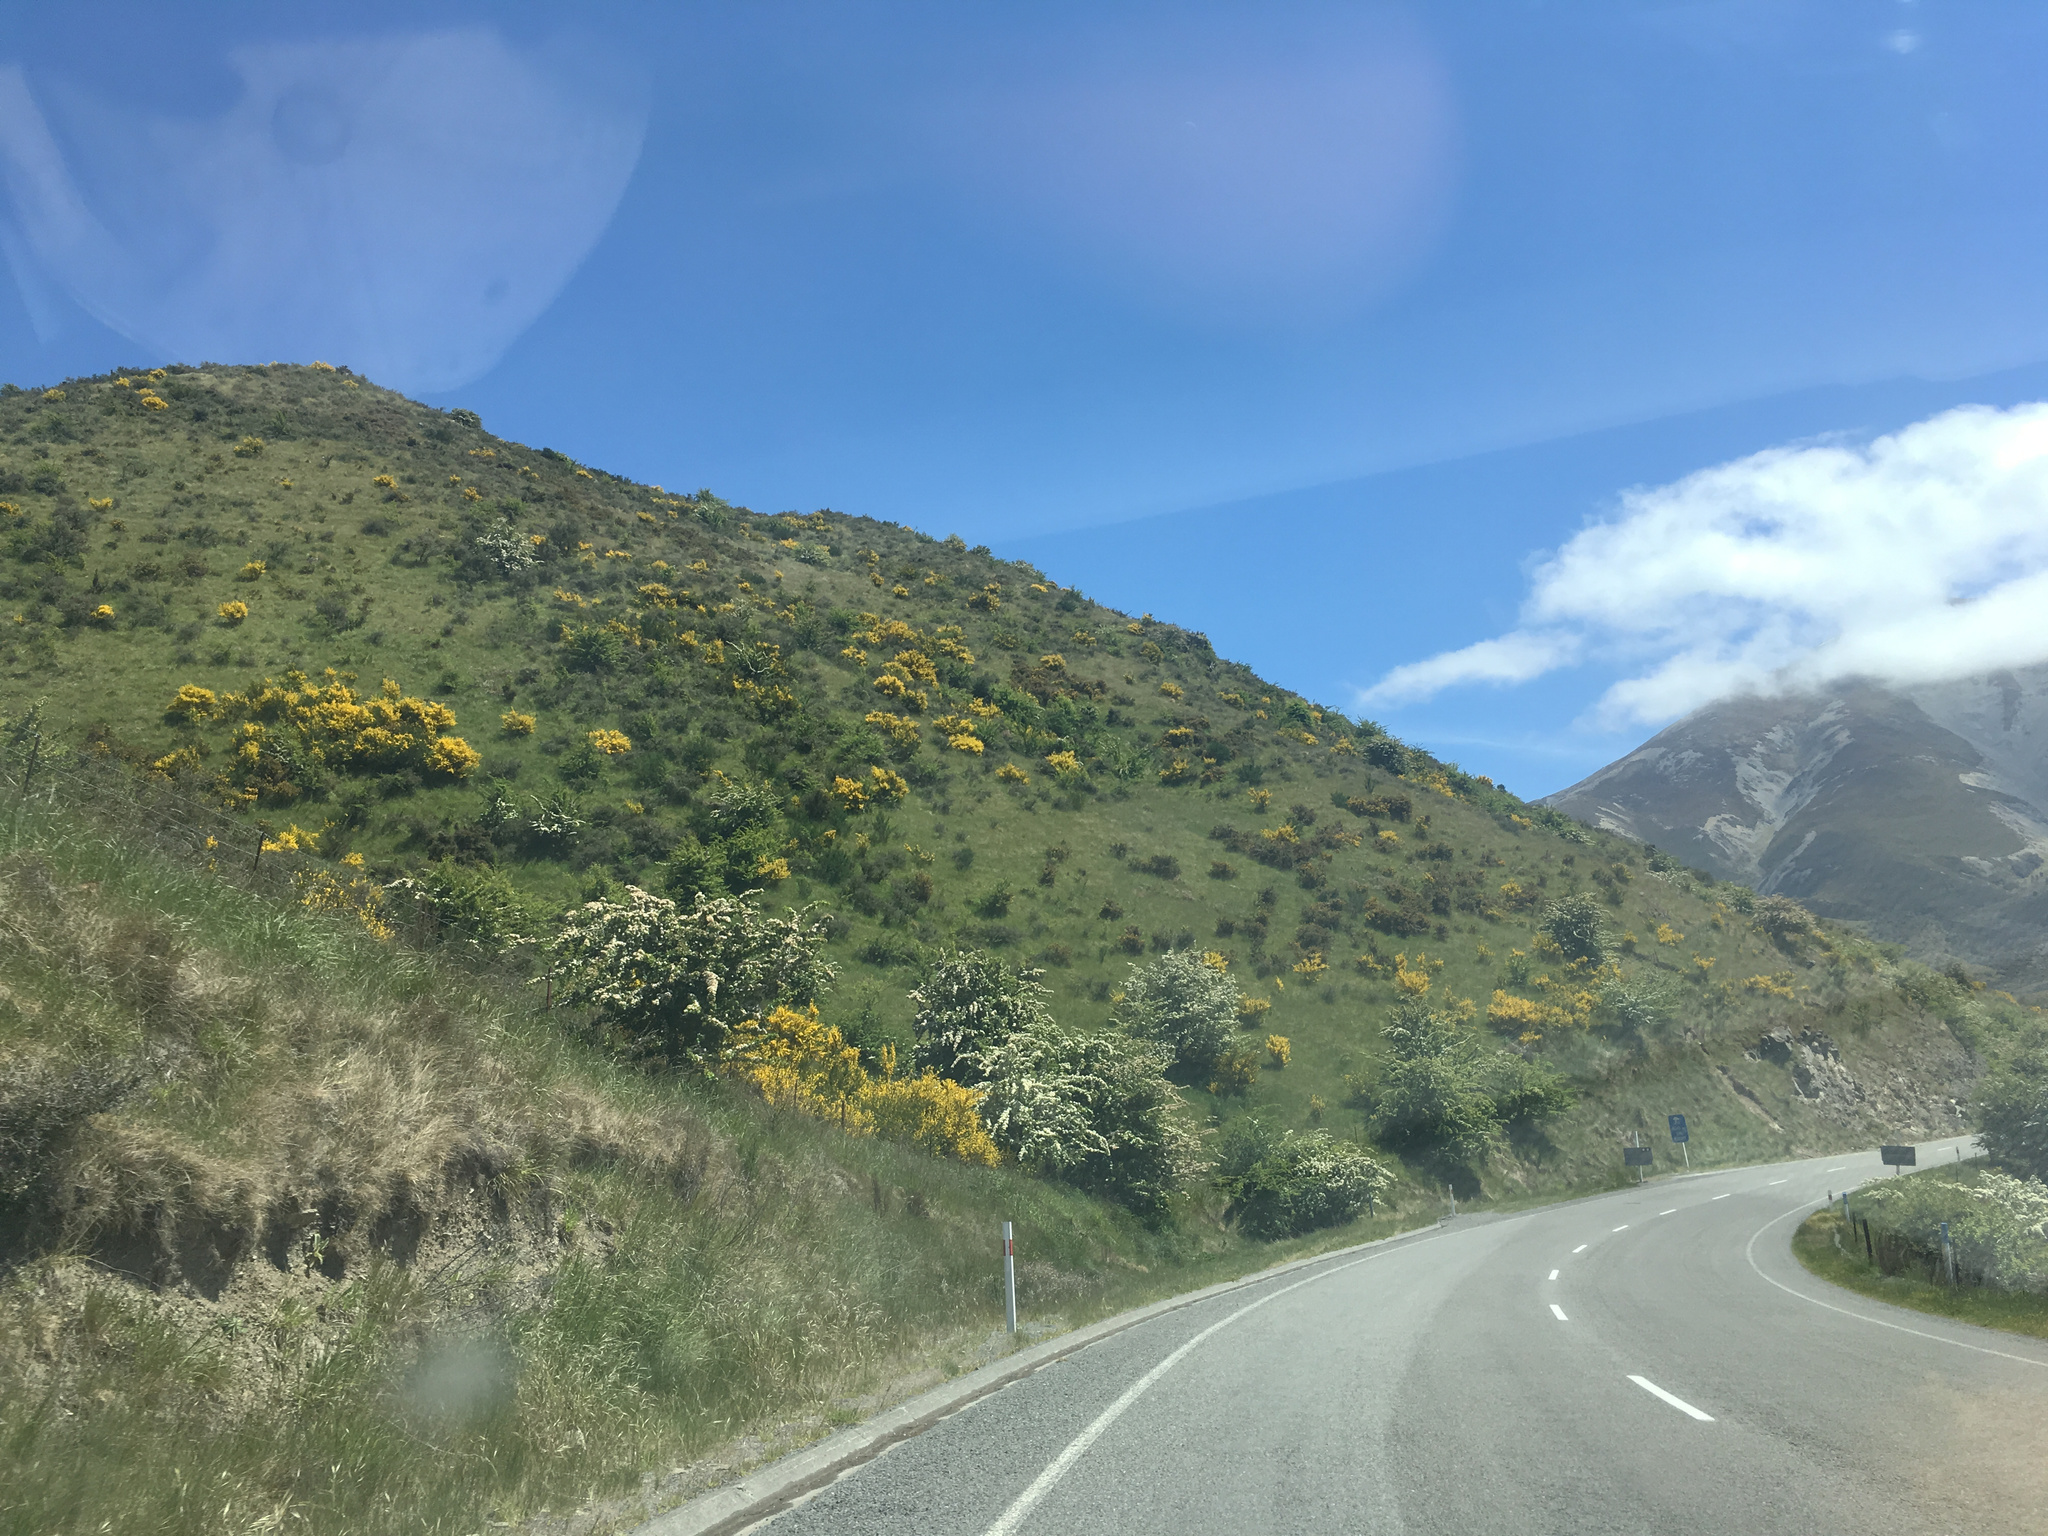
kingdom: Plantae
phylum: Tracheophyta
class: Magnoliopsida
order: Rosales
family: Rosaceae
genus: Crataegus
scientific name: Crataegus monogyna
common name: Hawthorn
